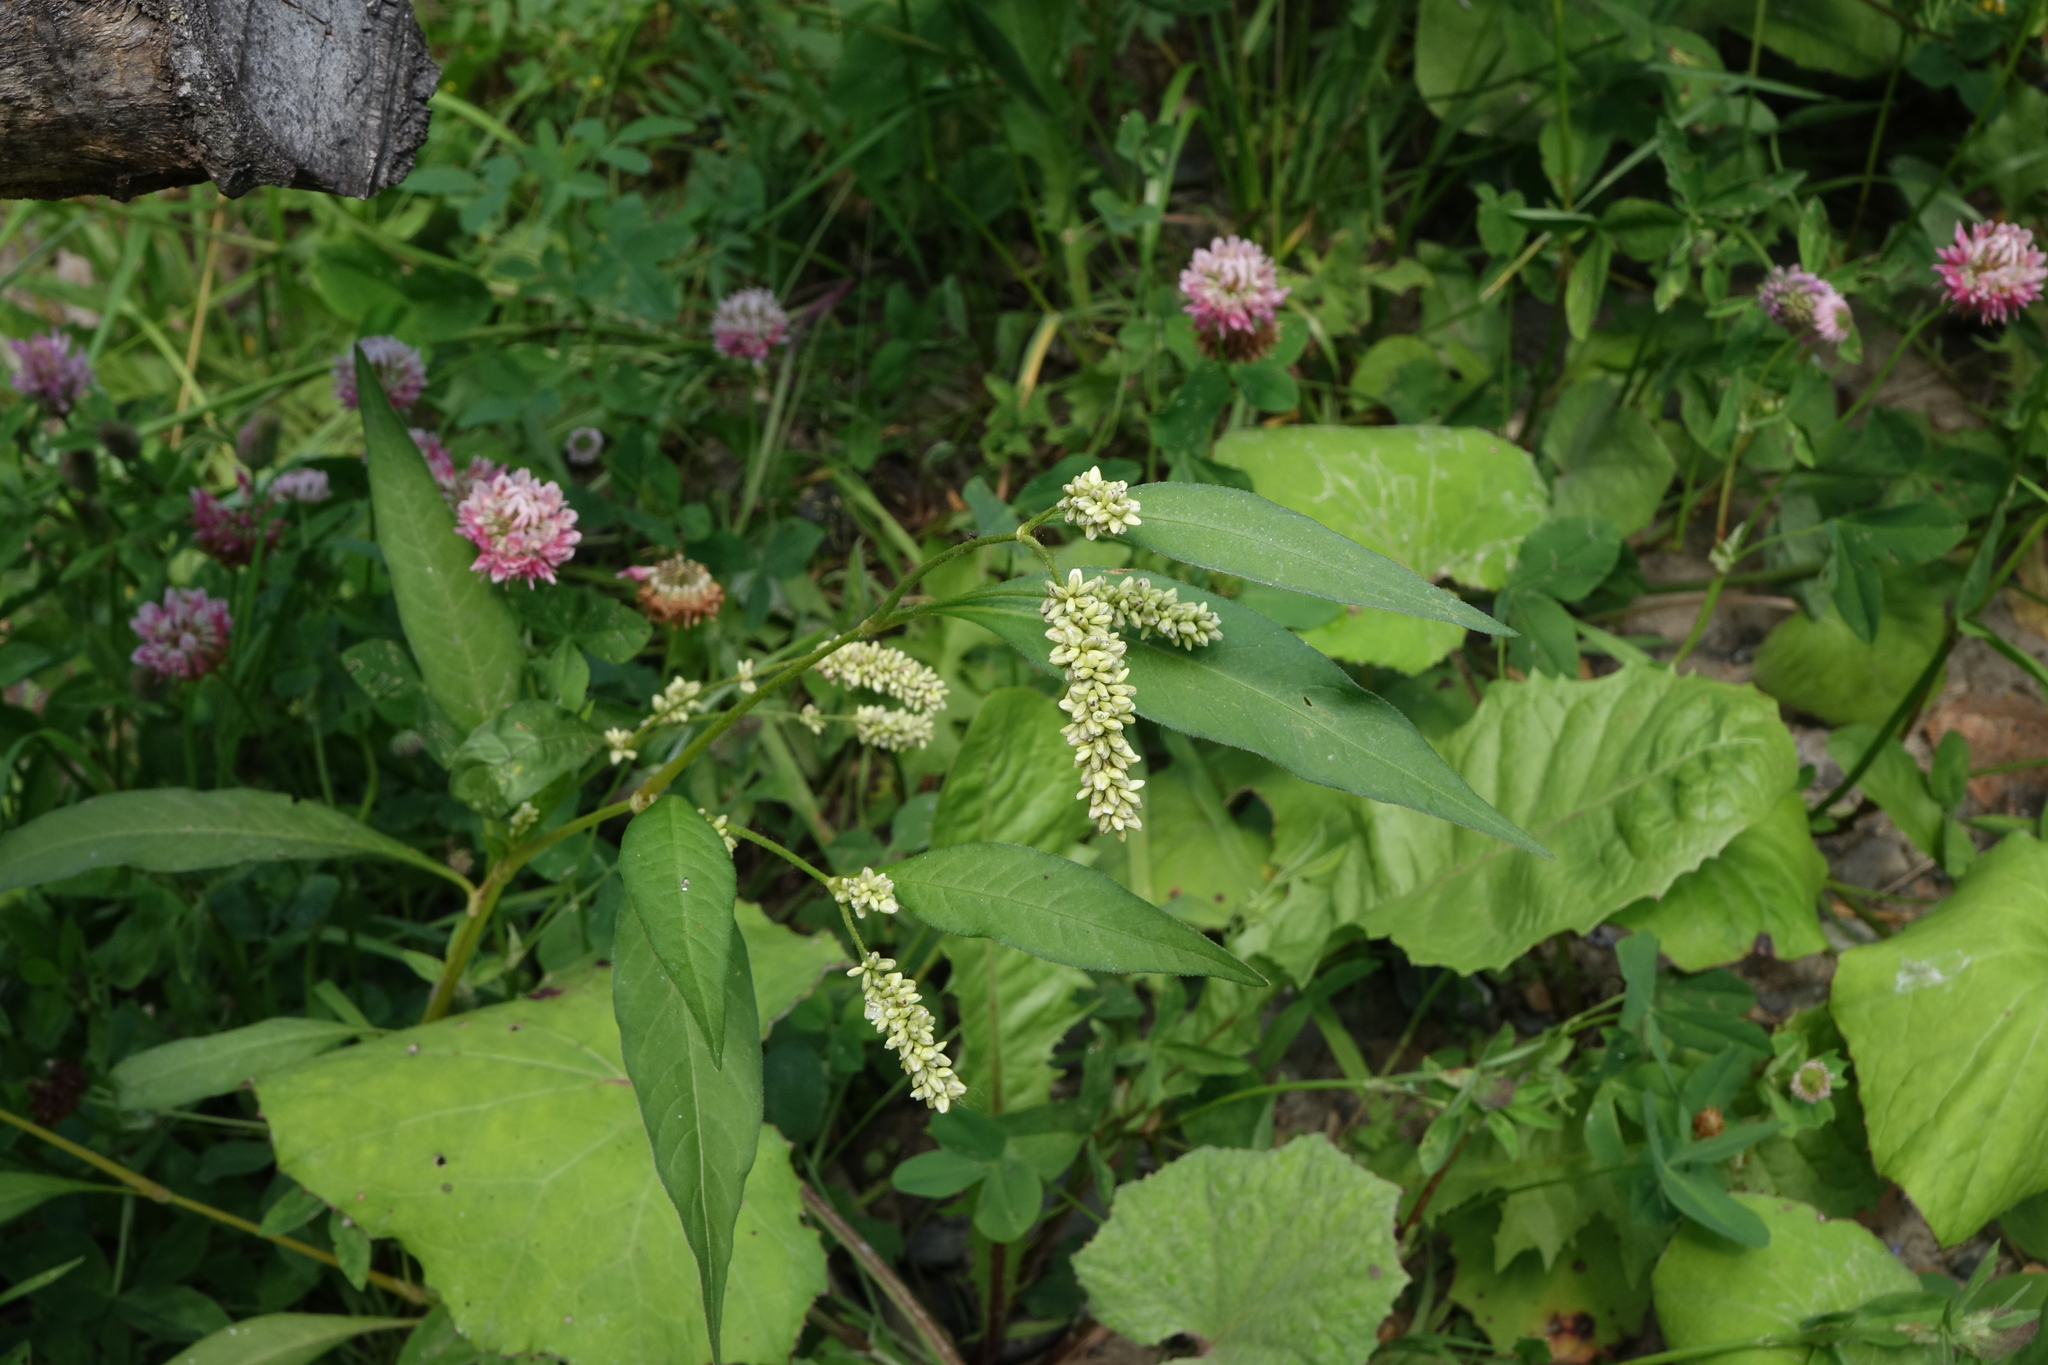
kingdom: Plantae
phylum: Tracheophyta
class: Magnoliopsida
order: Caryophyllales
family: Polygonaceae
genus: Persicaria
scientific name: Persicaria lapathifolia
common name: Curlytop knotweed
